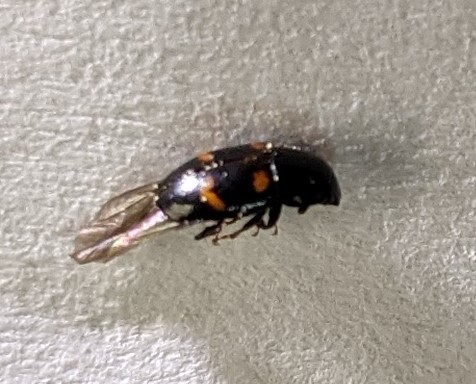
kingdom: Animalia
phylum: Arthropoda
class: Insecta
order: Coleoptera
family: Nitidulidae
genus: Glischrochilus
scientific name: Glischrochilus sanguinolentus
